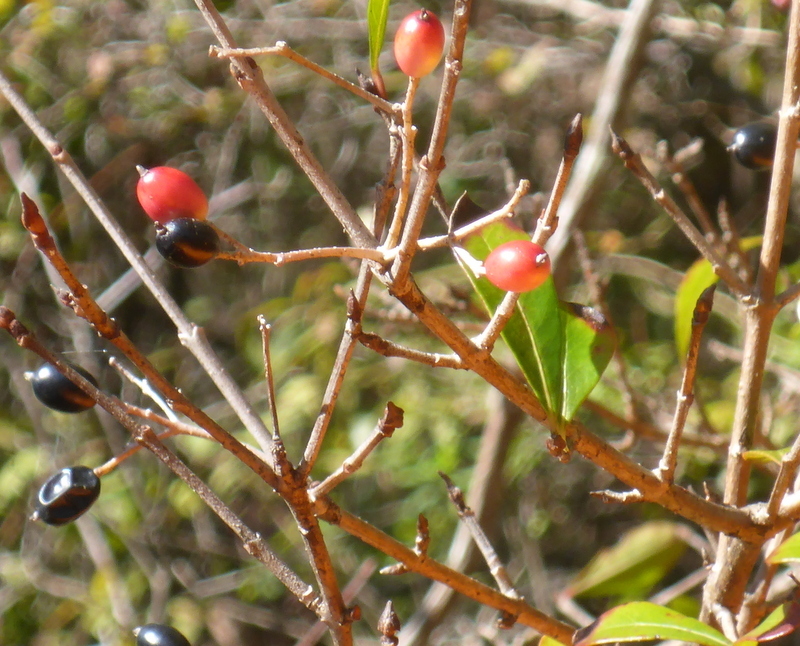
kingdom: Plantae
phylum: Tracheophyta
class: Magnoliopsida
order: Dipsacales
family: Viburnaceae
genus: Viburnum
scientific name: Viburnum obovatum
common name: Walter's viburnum
